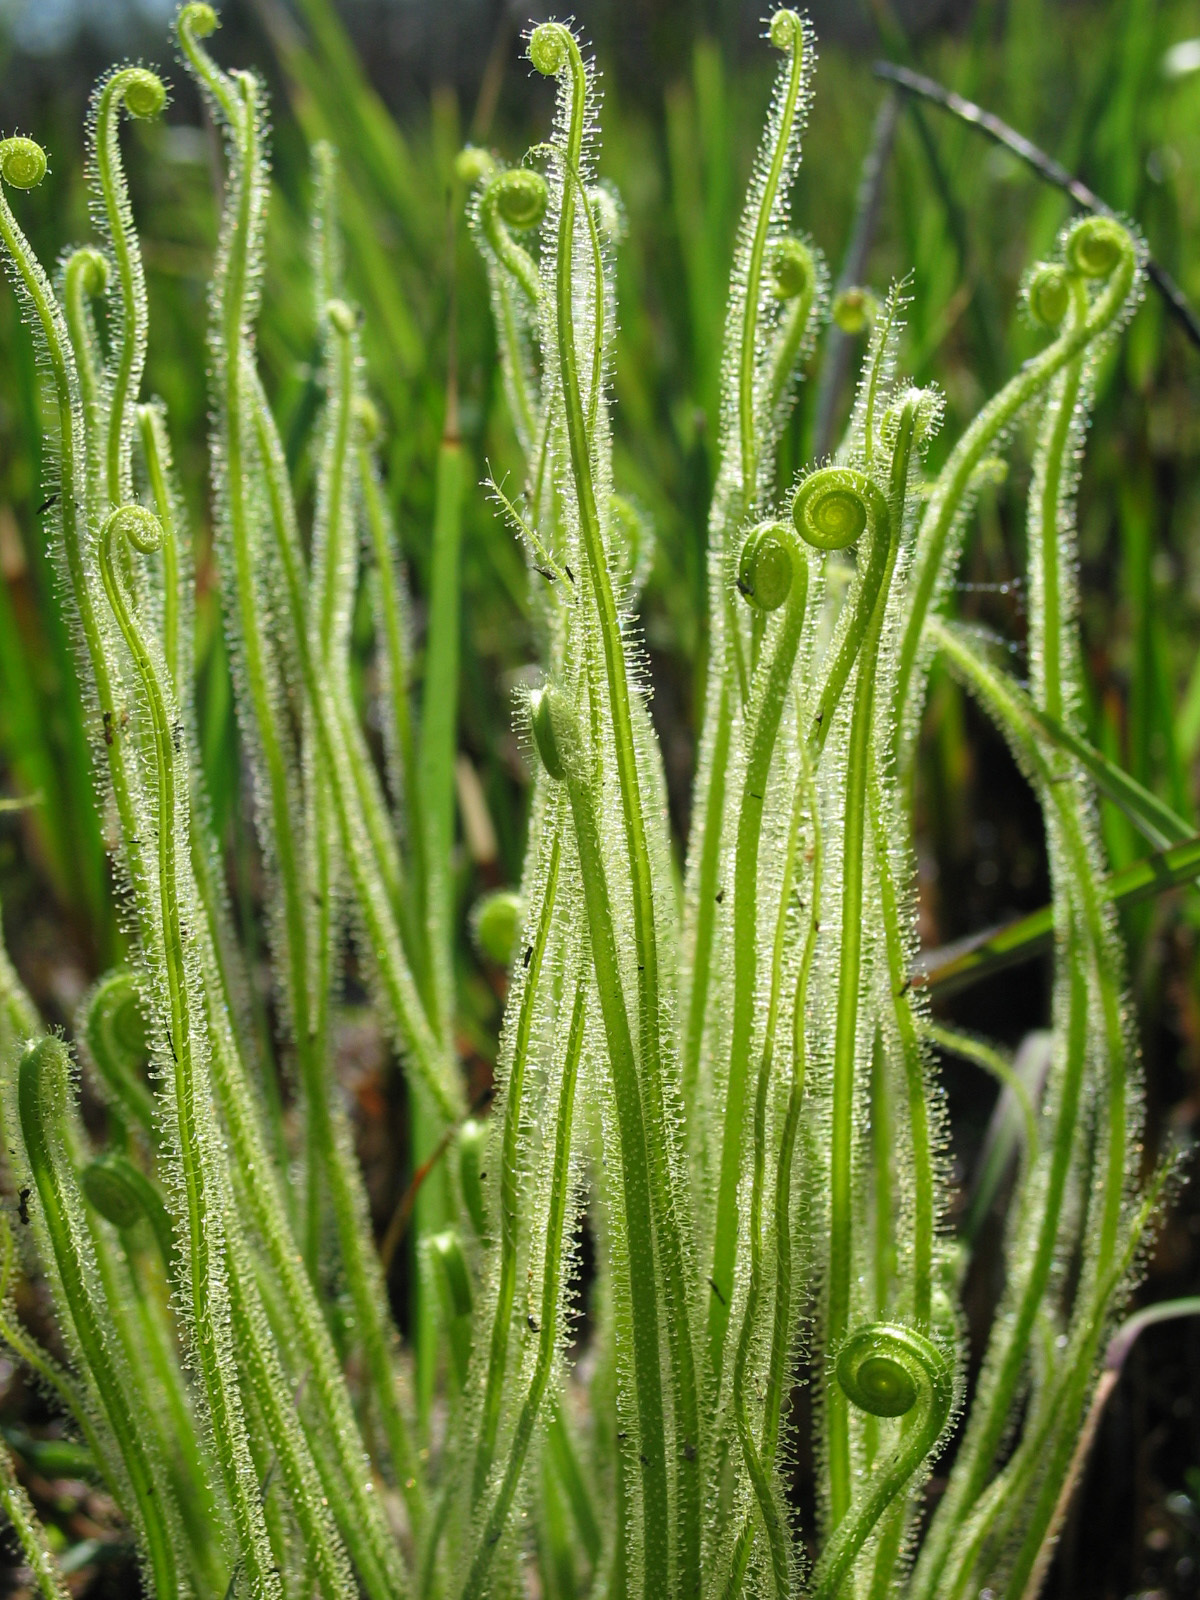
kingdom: Plantae
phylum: Tracheophyta
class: Magnoliopsida
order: Caryophyllales
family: Droseraceae
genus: Drosera
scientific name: Drosera filiformis
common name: Dew-thread
